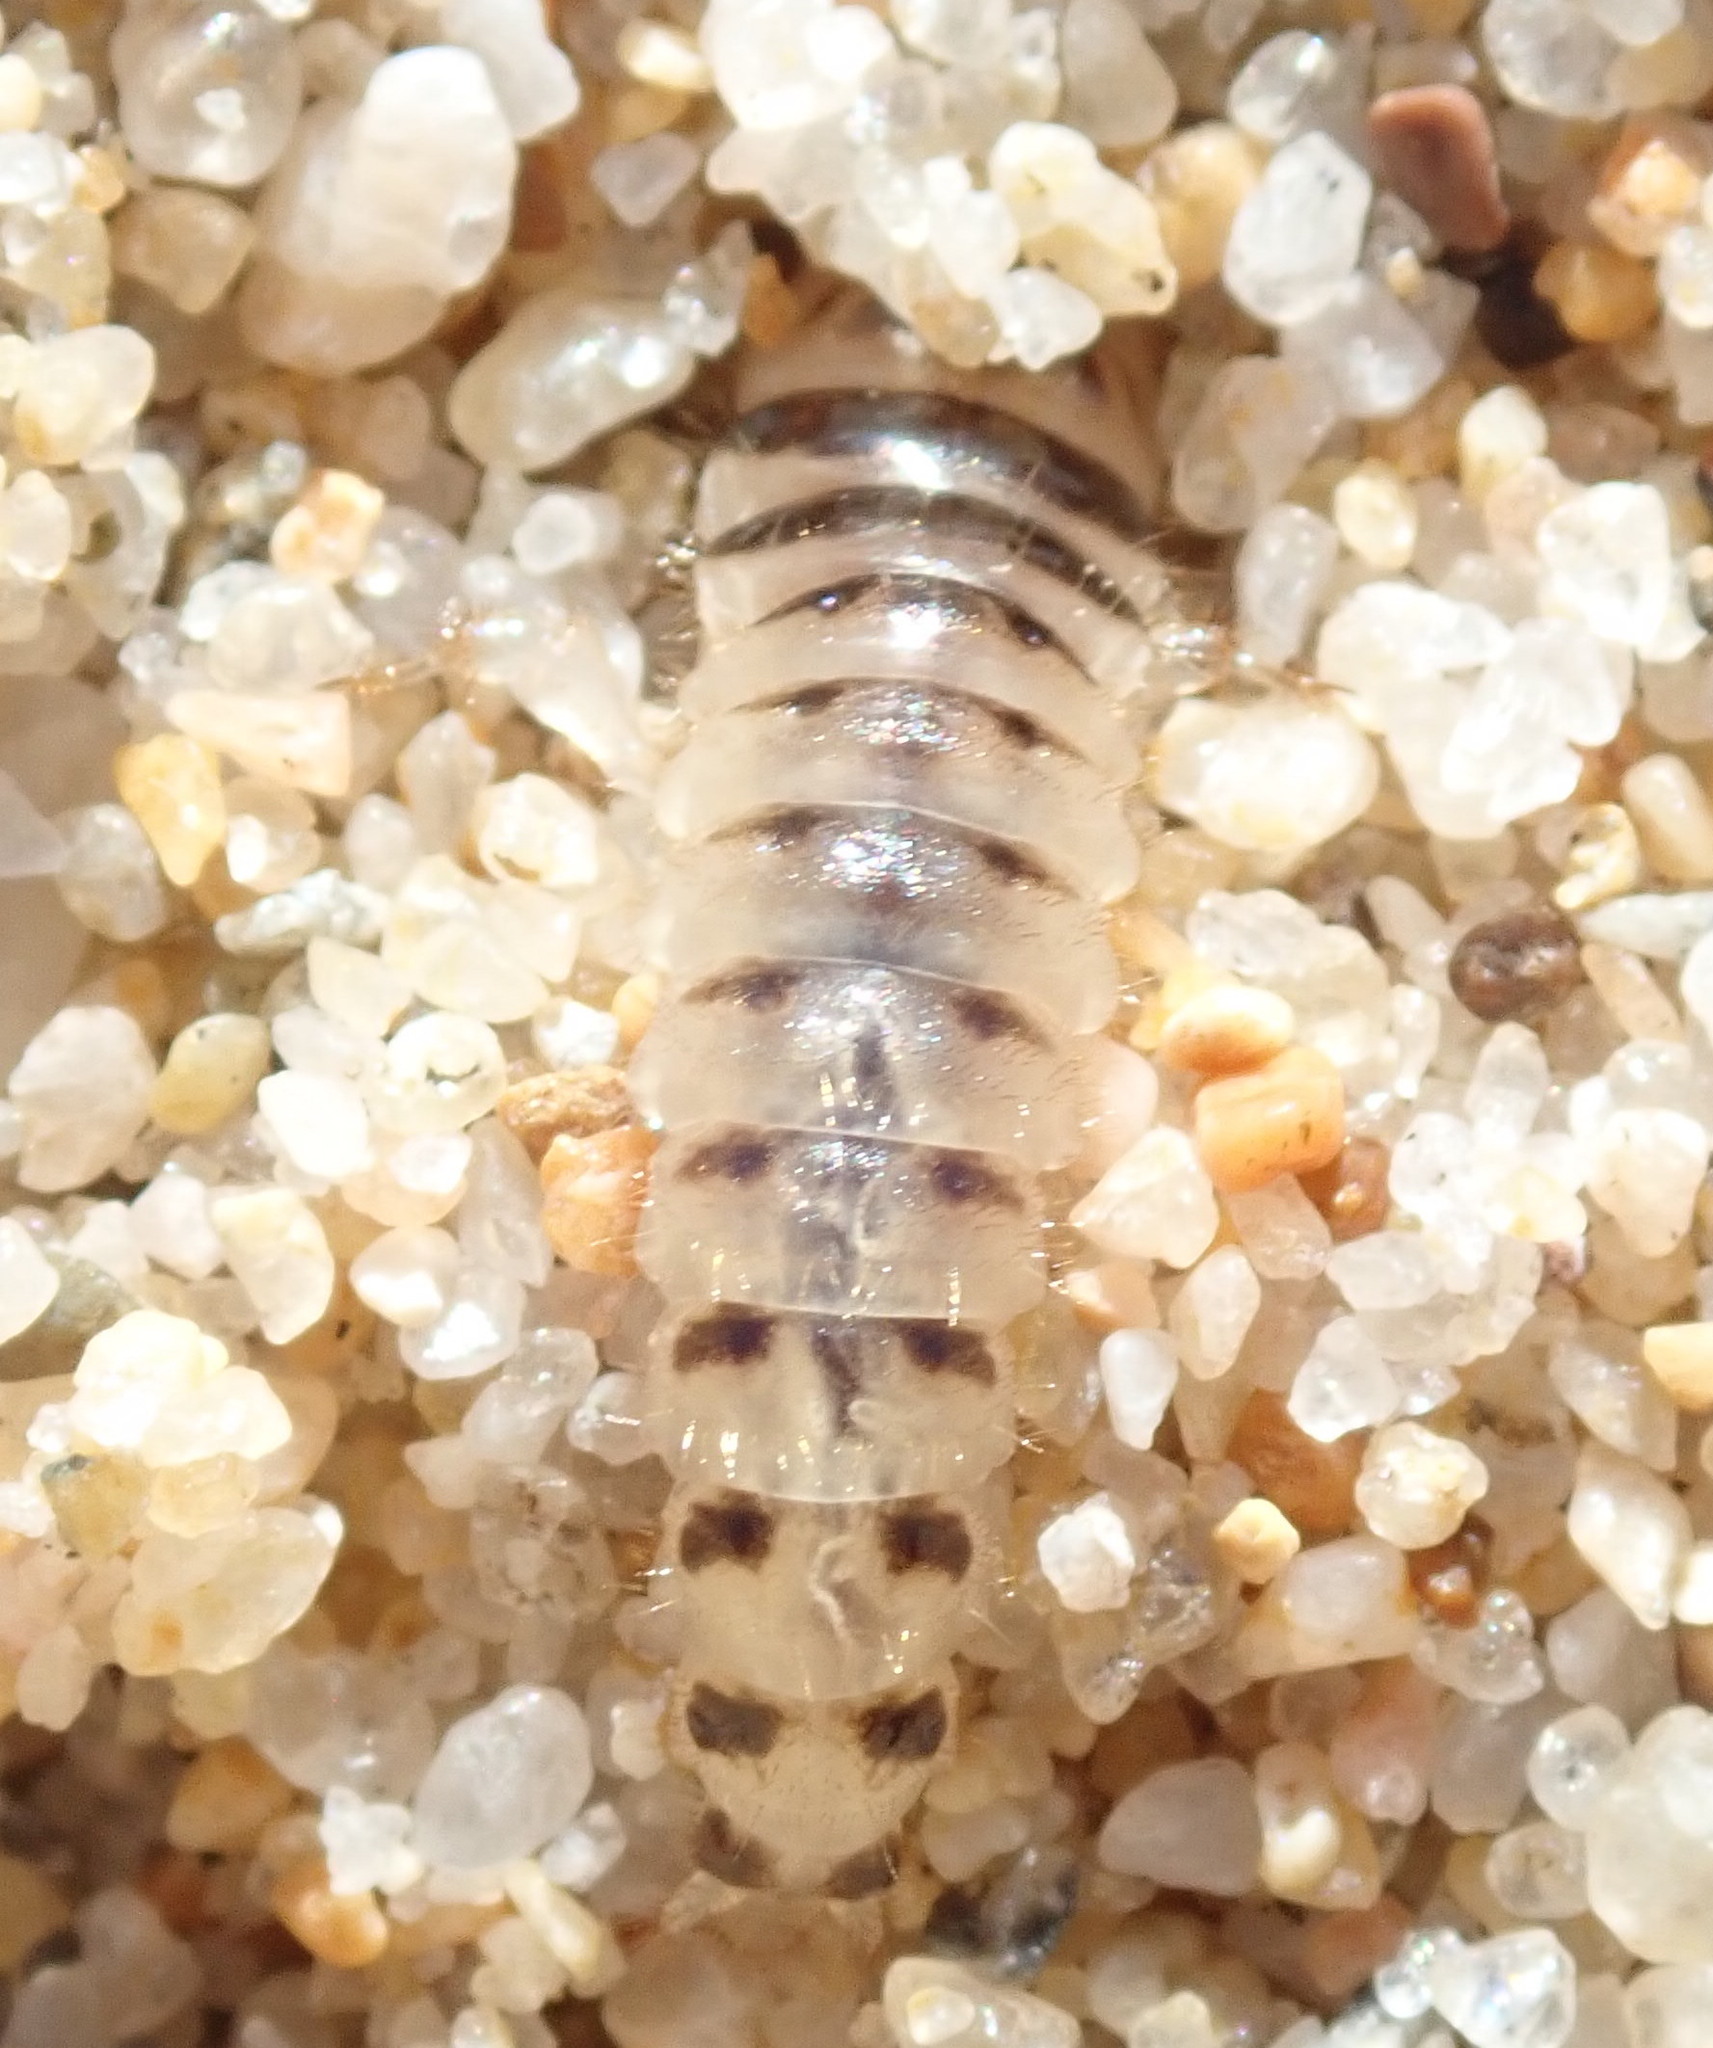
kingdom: Animalia
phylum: Arthropoda
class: Insecta
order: Coleoptera
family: Staphylinidae
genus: Thinopinus
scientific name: Thinopinus pictus
